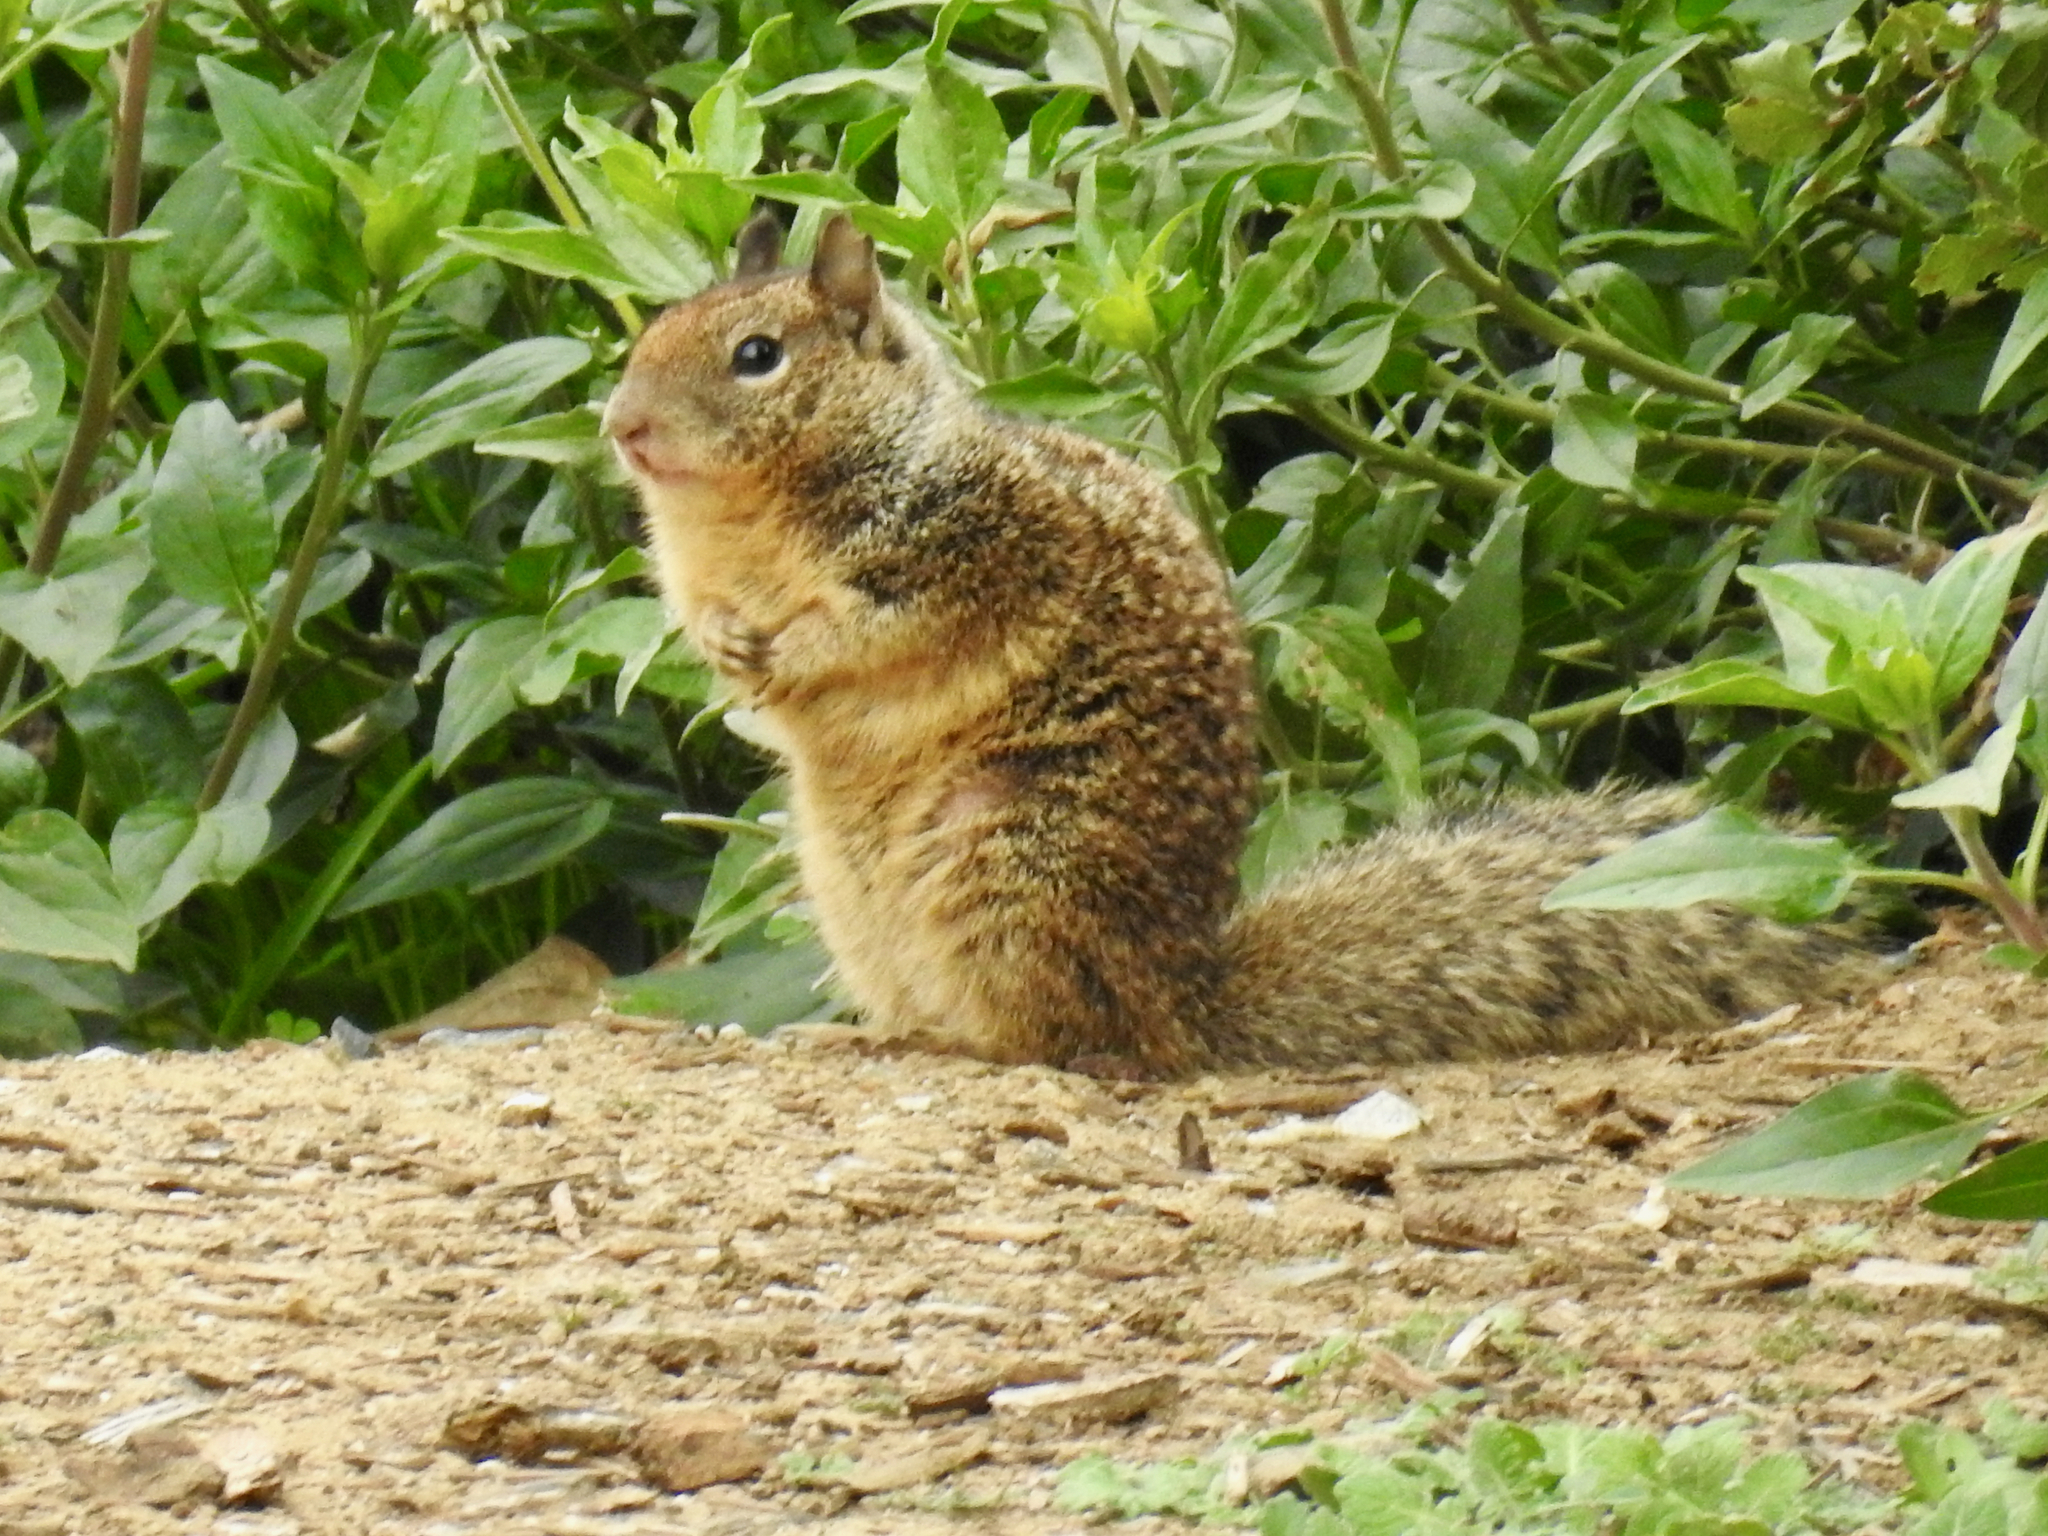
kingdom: Animalia
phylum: Chordata
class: Mammalia
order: Rodentia
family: Sciuridae
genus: Otospermophilus
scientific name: Otospermophilus beecheyi
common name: California ground squirrel
